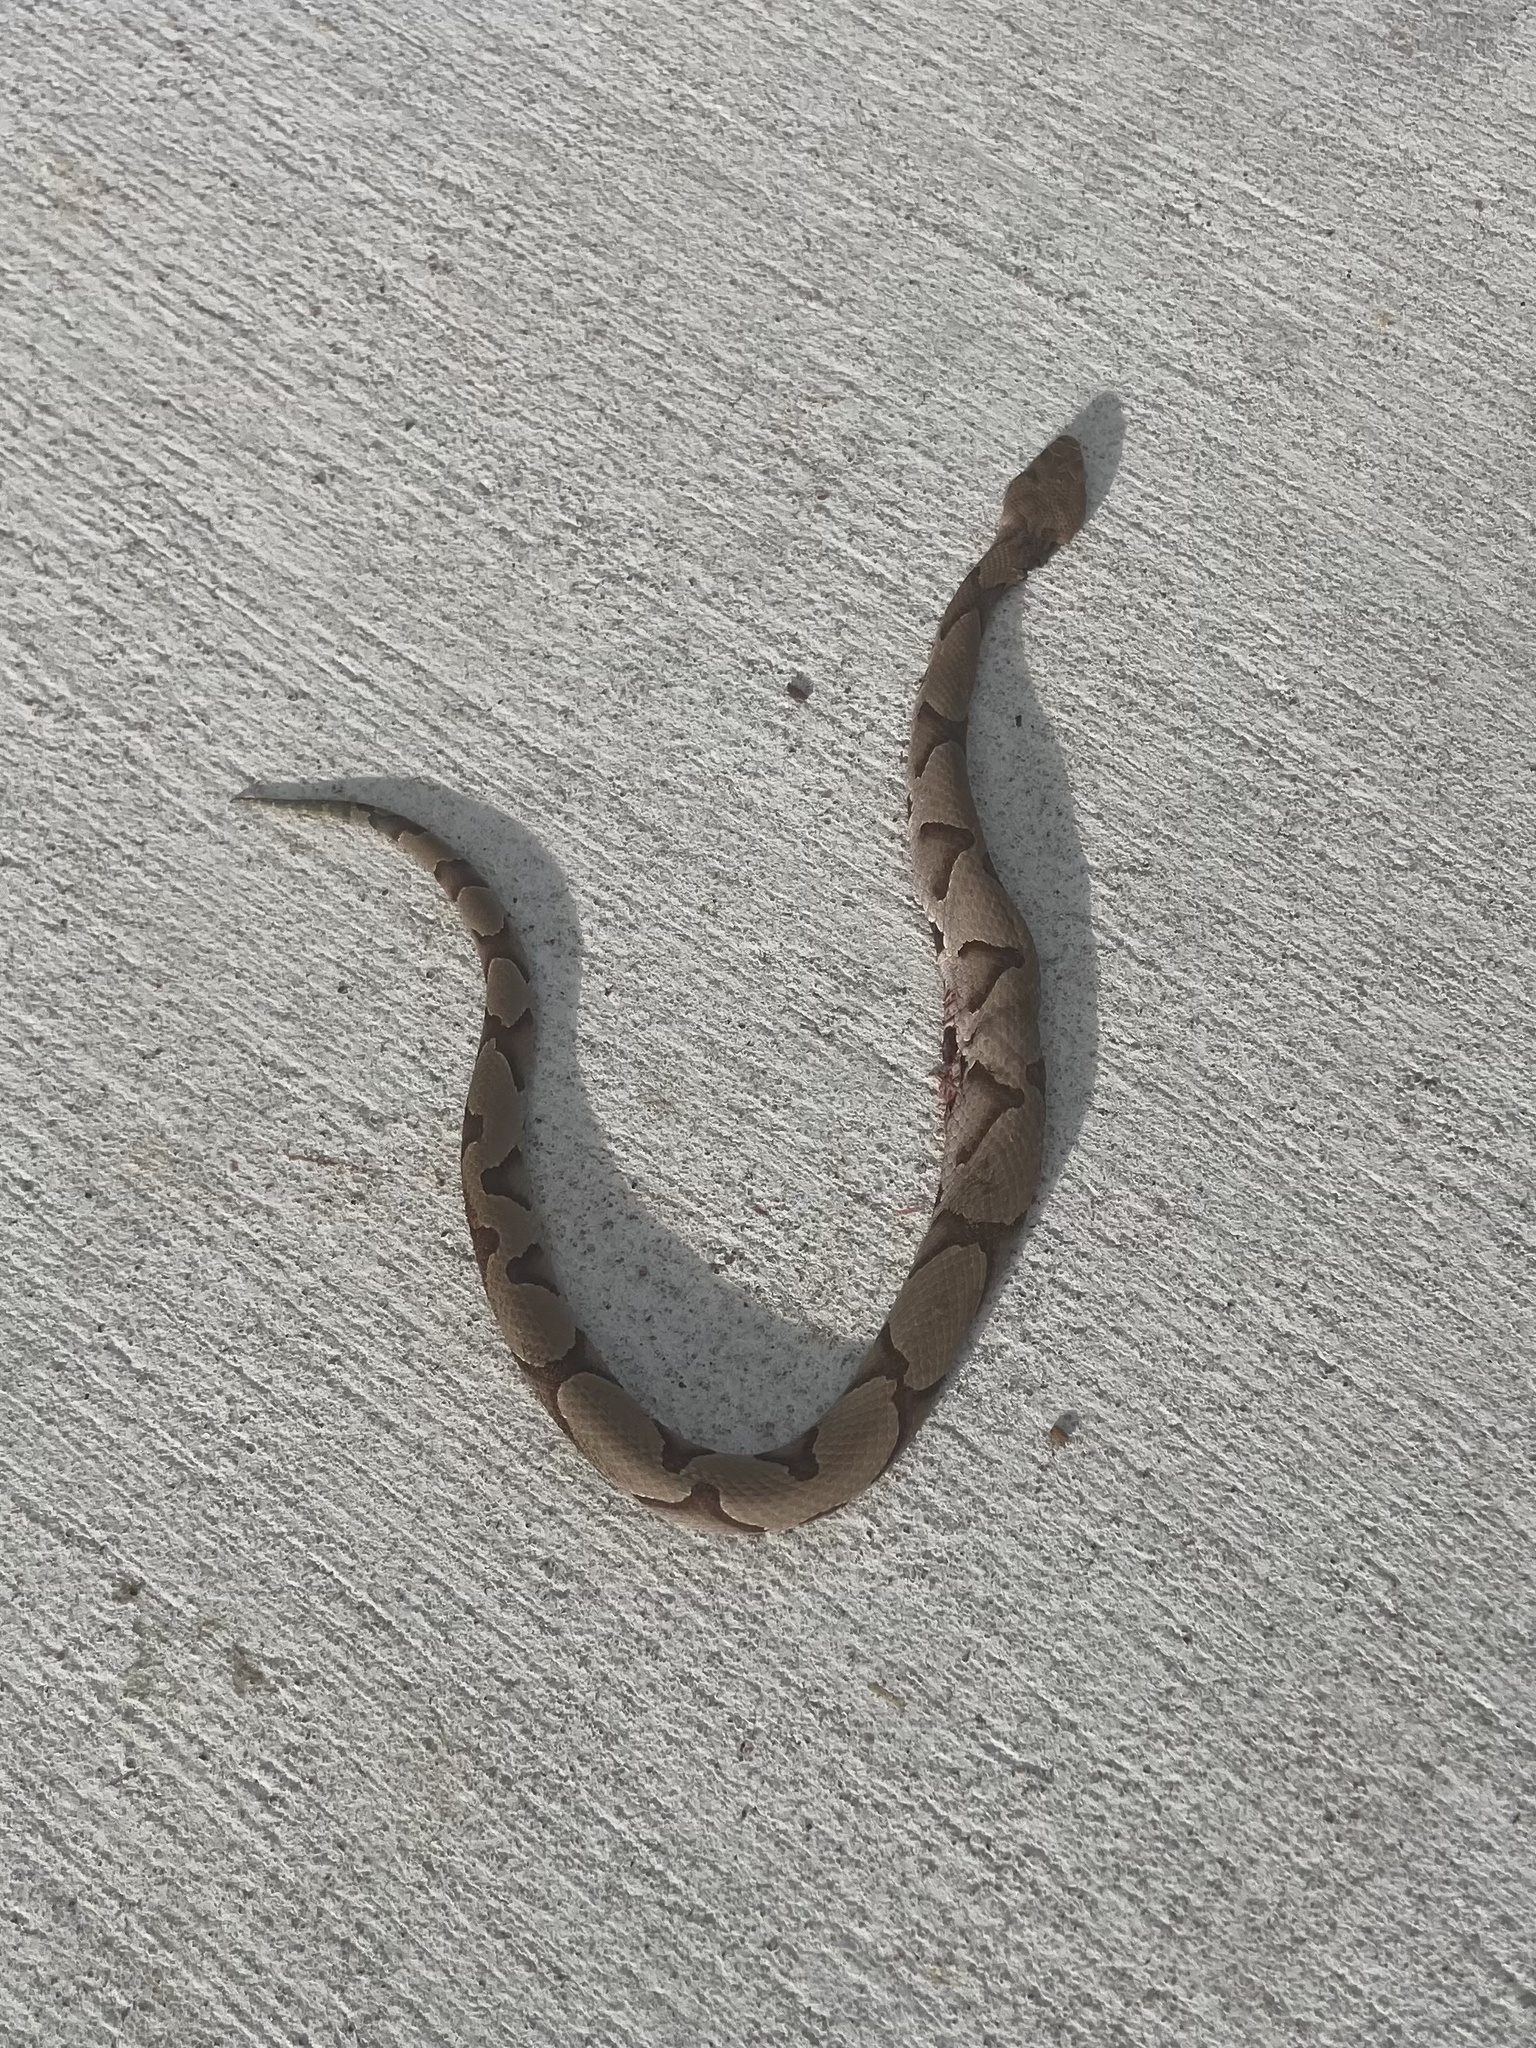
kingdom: Animalia
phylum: Chordata
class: Squamata
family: Viperidae
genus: Agkistrodon
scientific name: Agkistrodon contortrix
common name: Northern copperhead
